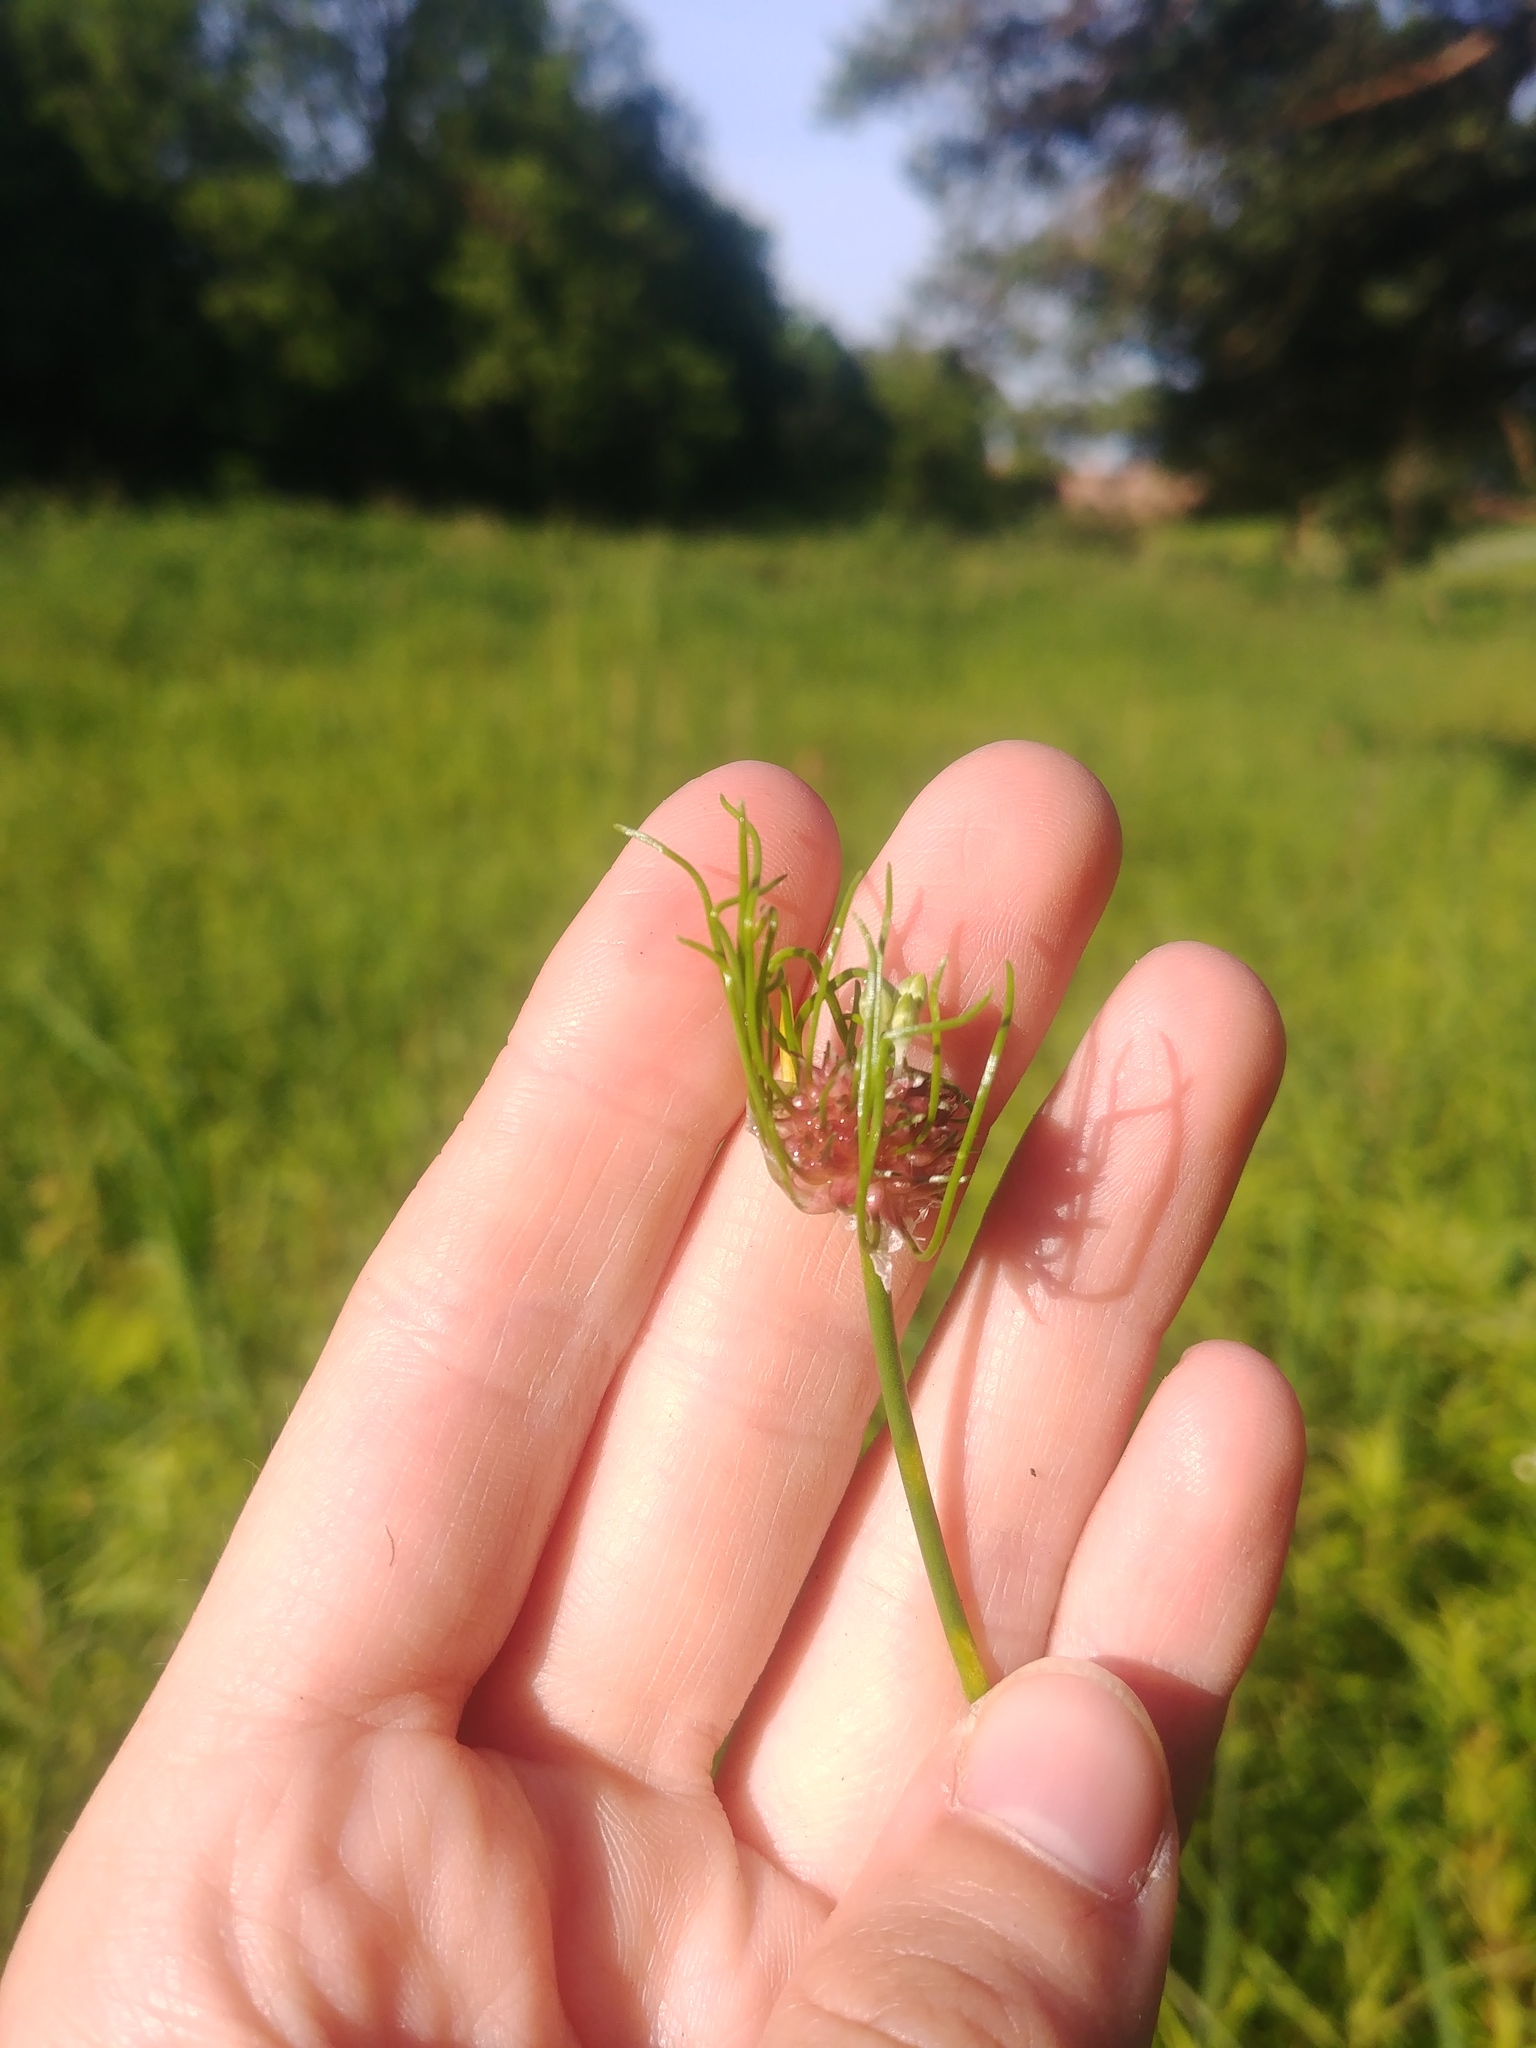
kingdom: Plantae
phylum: Tracheophyta
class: Liliopsida
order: Asparagales
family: Amaryllidaceae
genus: Allium
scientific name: Allium vineale
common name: Crow garlic
